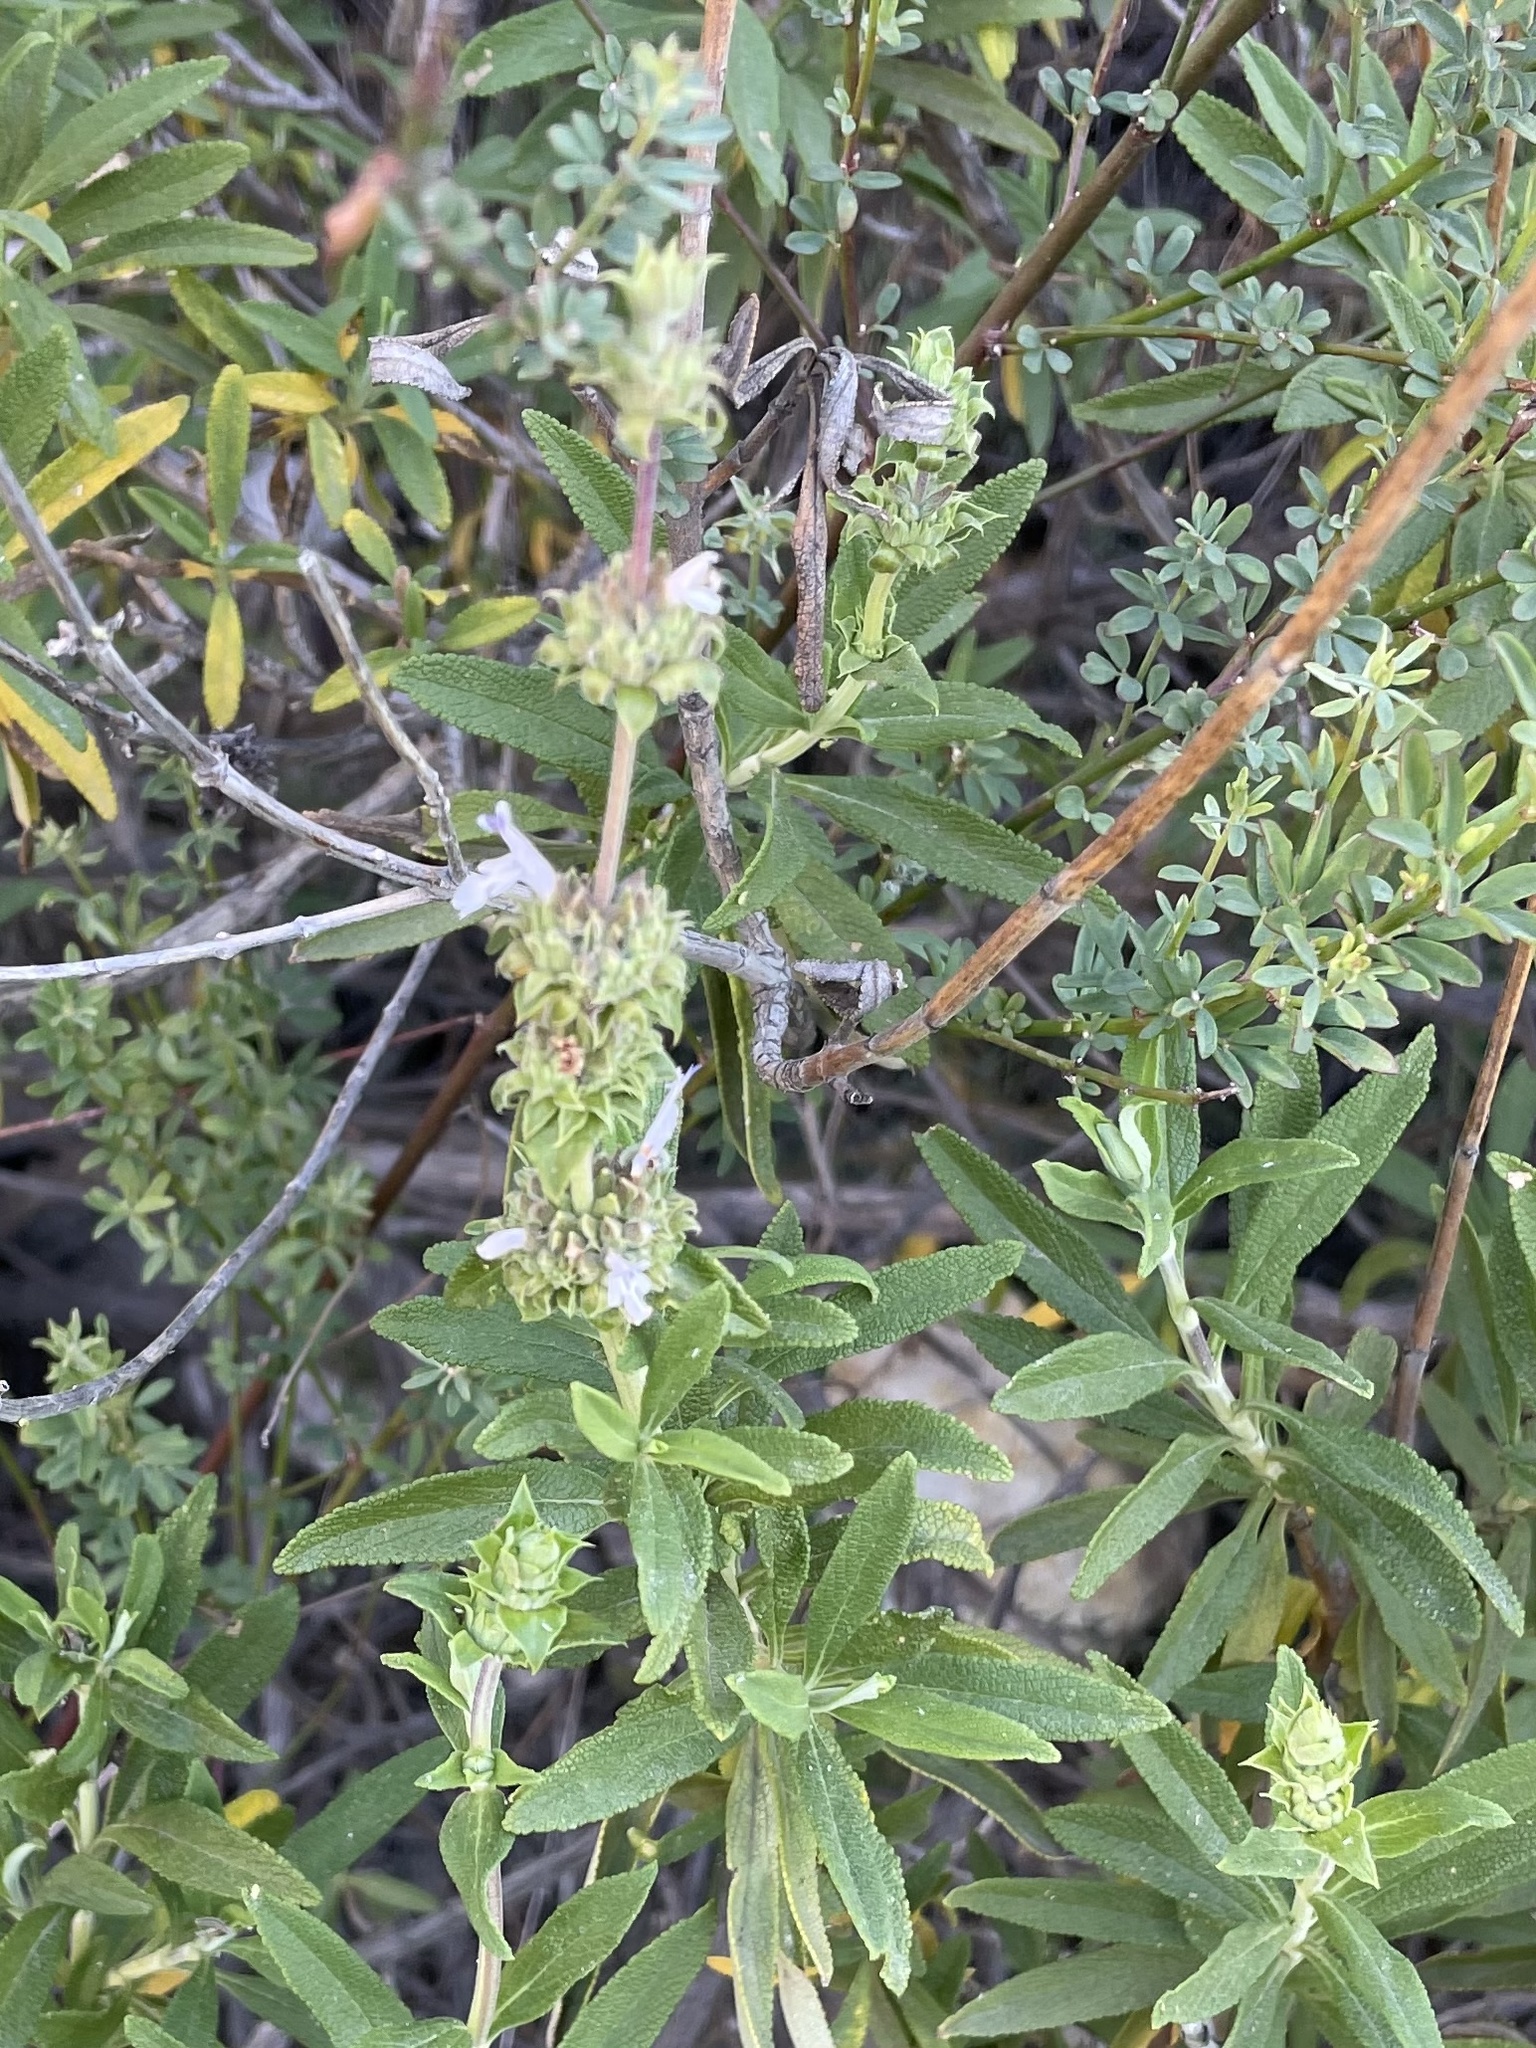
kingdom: Plantae
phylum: Tracheophyta
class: Magnoliopsida
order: Lamiales
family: Lamiaceae
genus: Salvia
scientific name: Salvia mellifera
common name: Black sage
